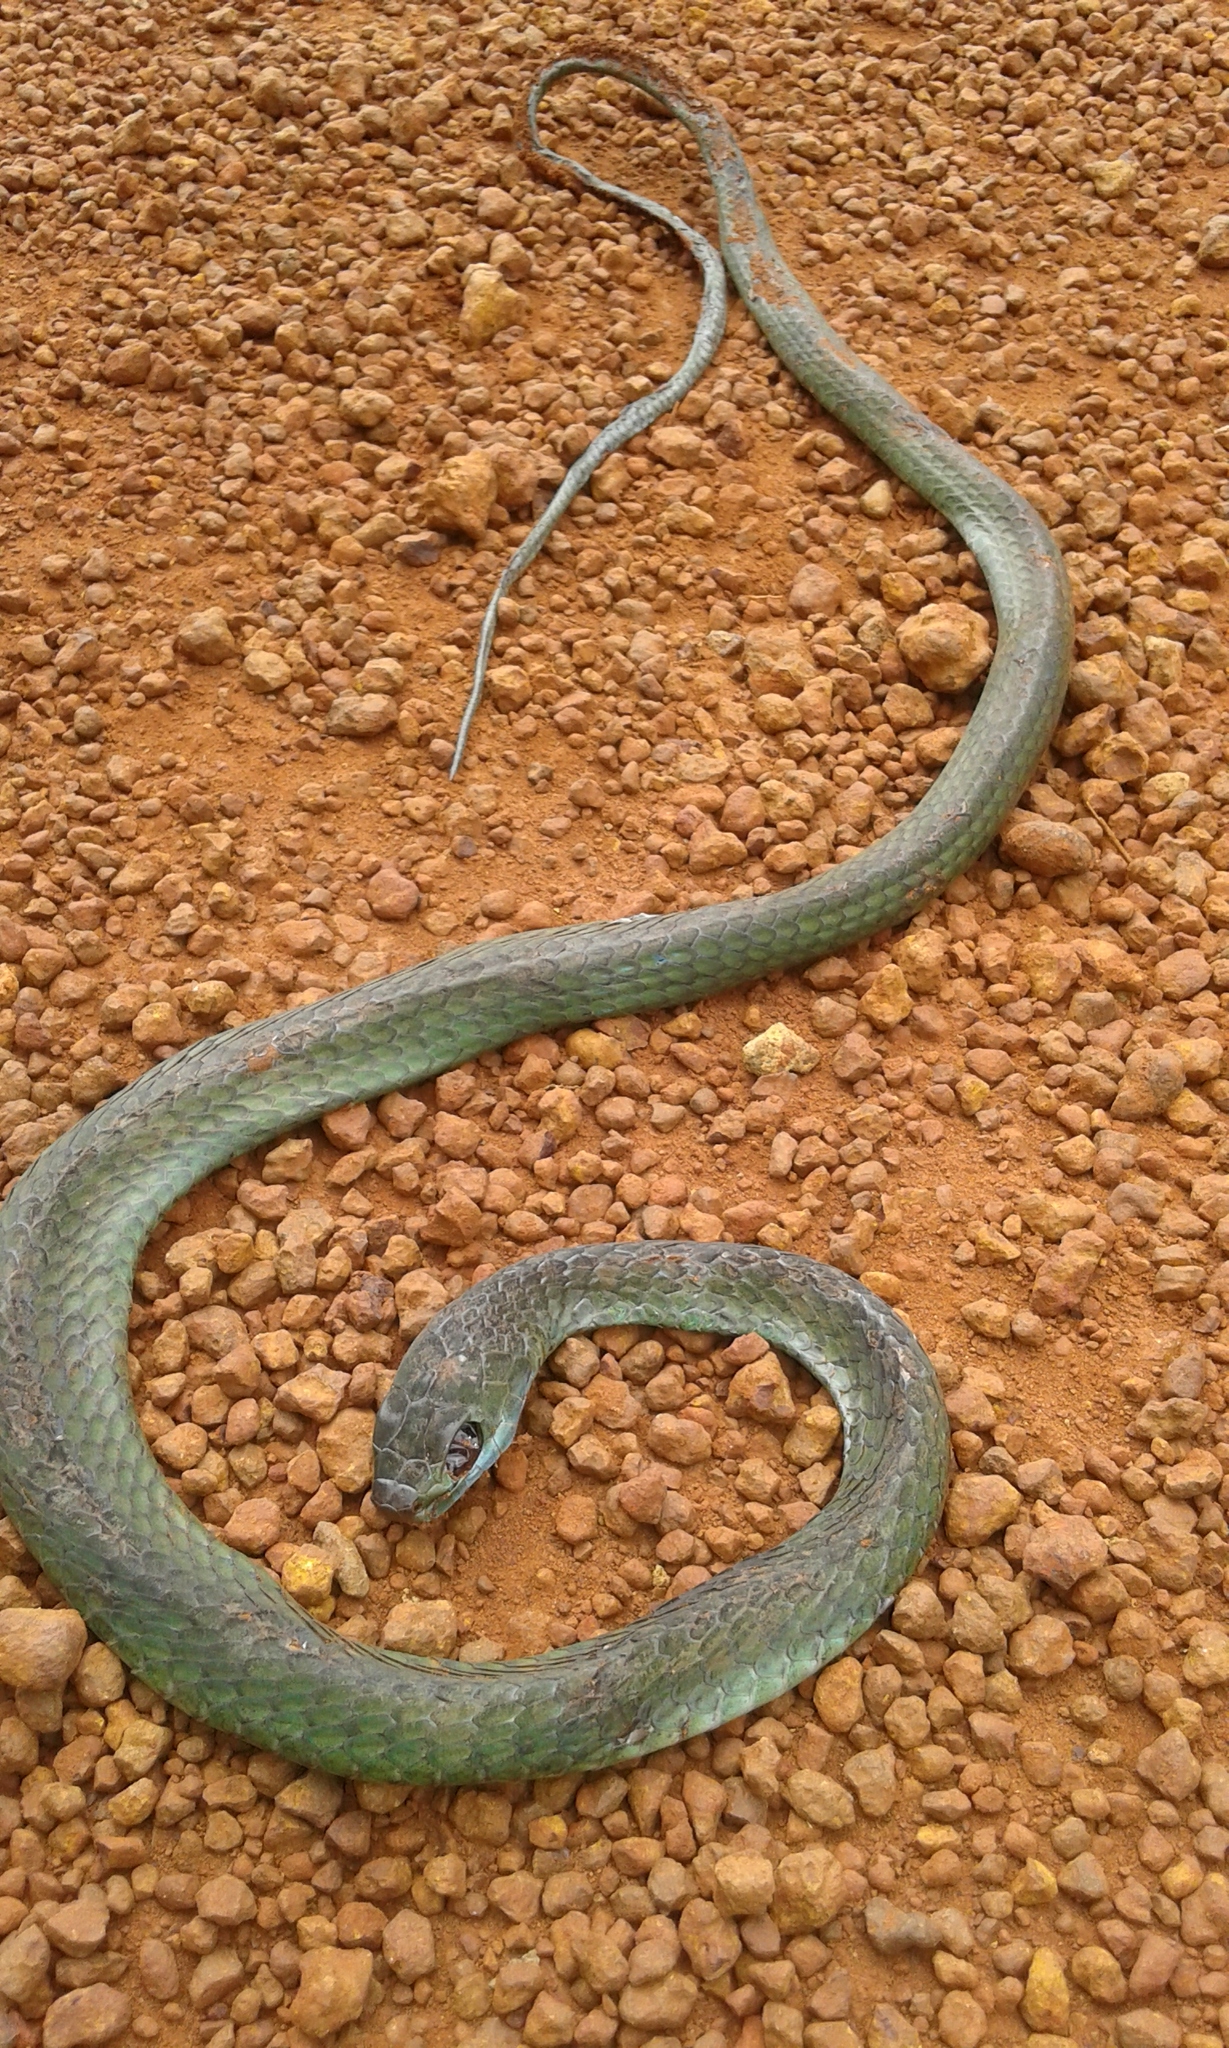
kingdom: Animalia
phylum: Chordata
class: Squamata
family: Colubridae
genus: Chironius
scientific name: Chironius exoletus
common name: Linnaeus' sipo
